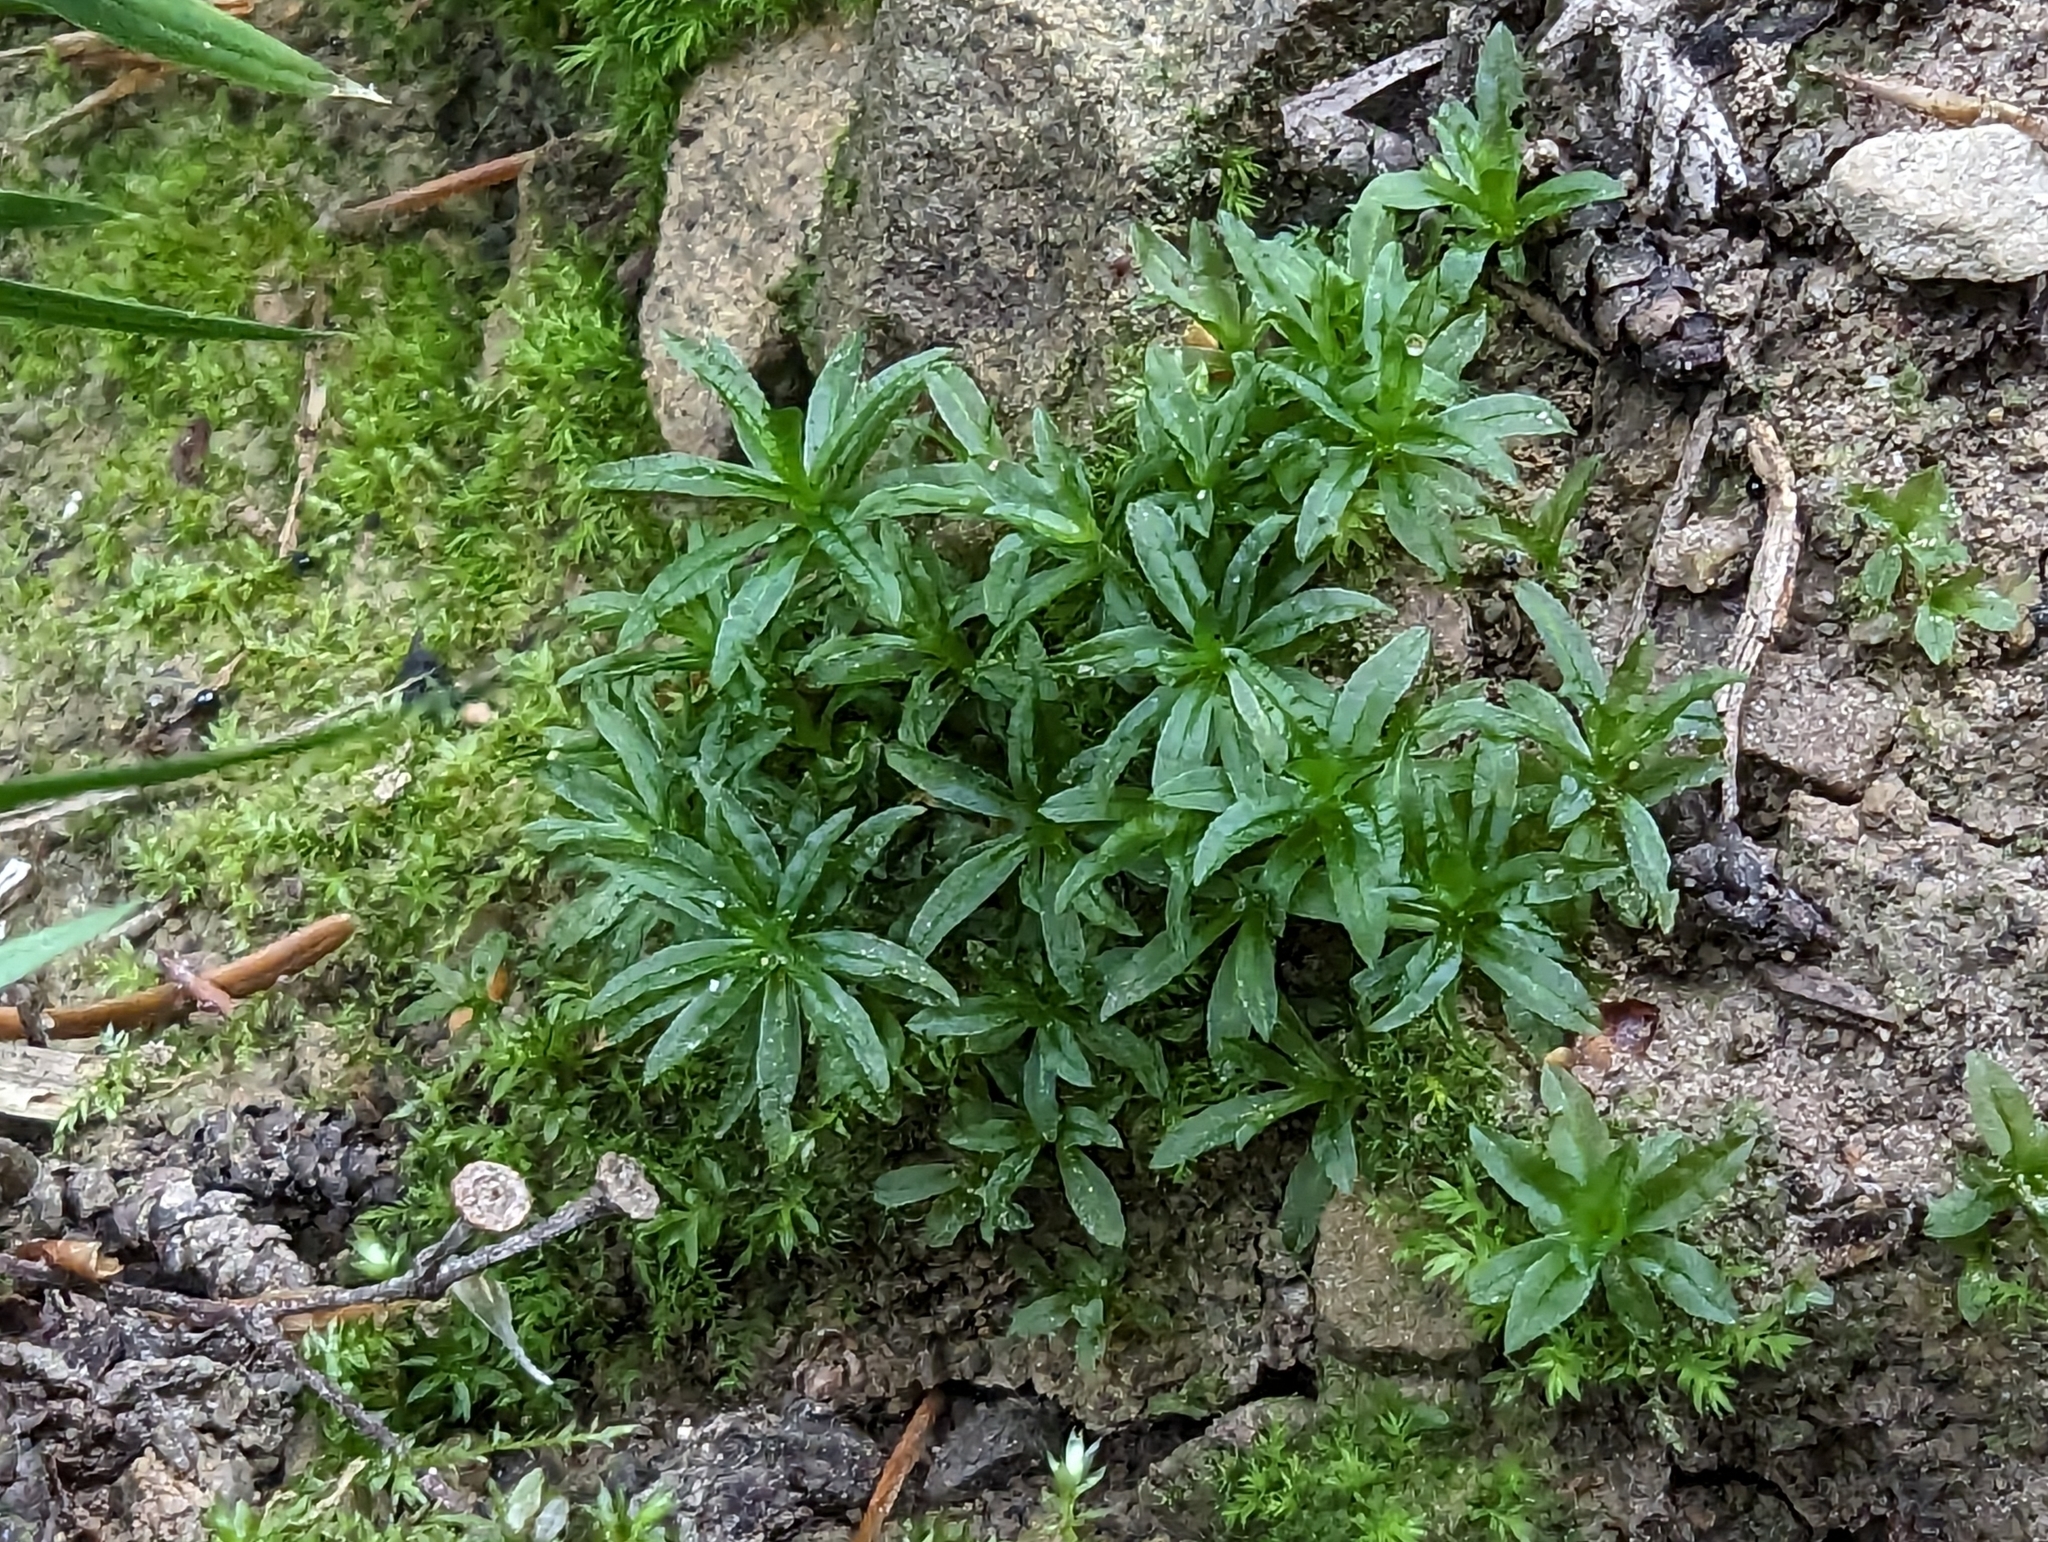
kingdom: Plantae
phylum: Bryophyta
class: Polytrichopsida
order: Polytrichales
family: Polytrichaceae
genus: Atrichum
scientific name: Atrichum undulatum
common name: Common smoothcap
